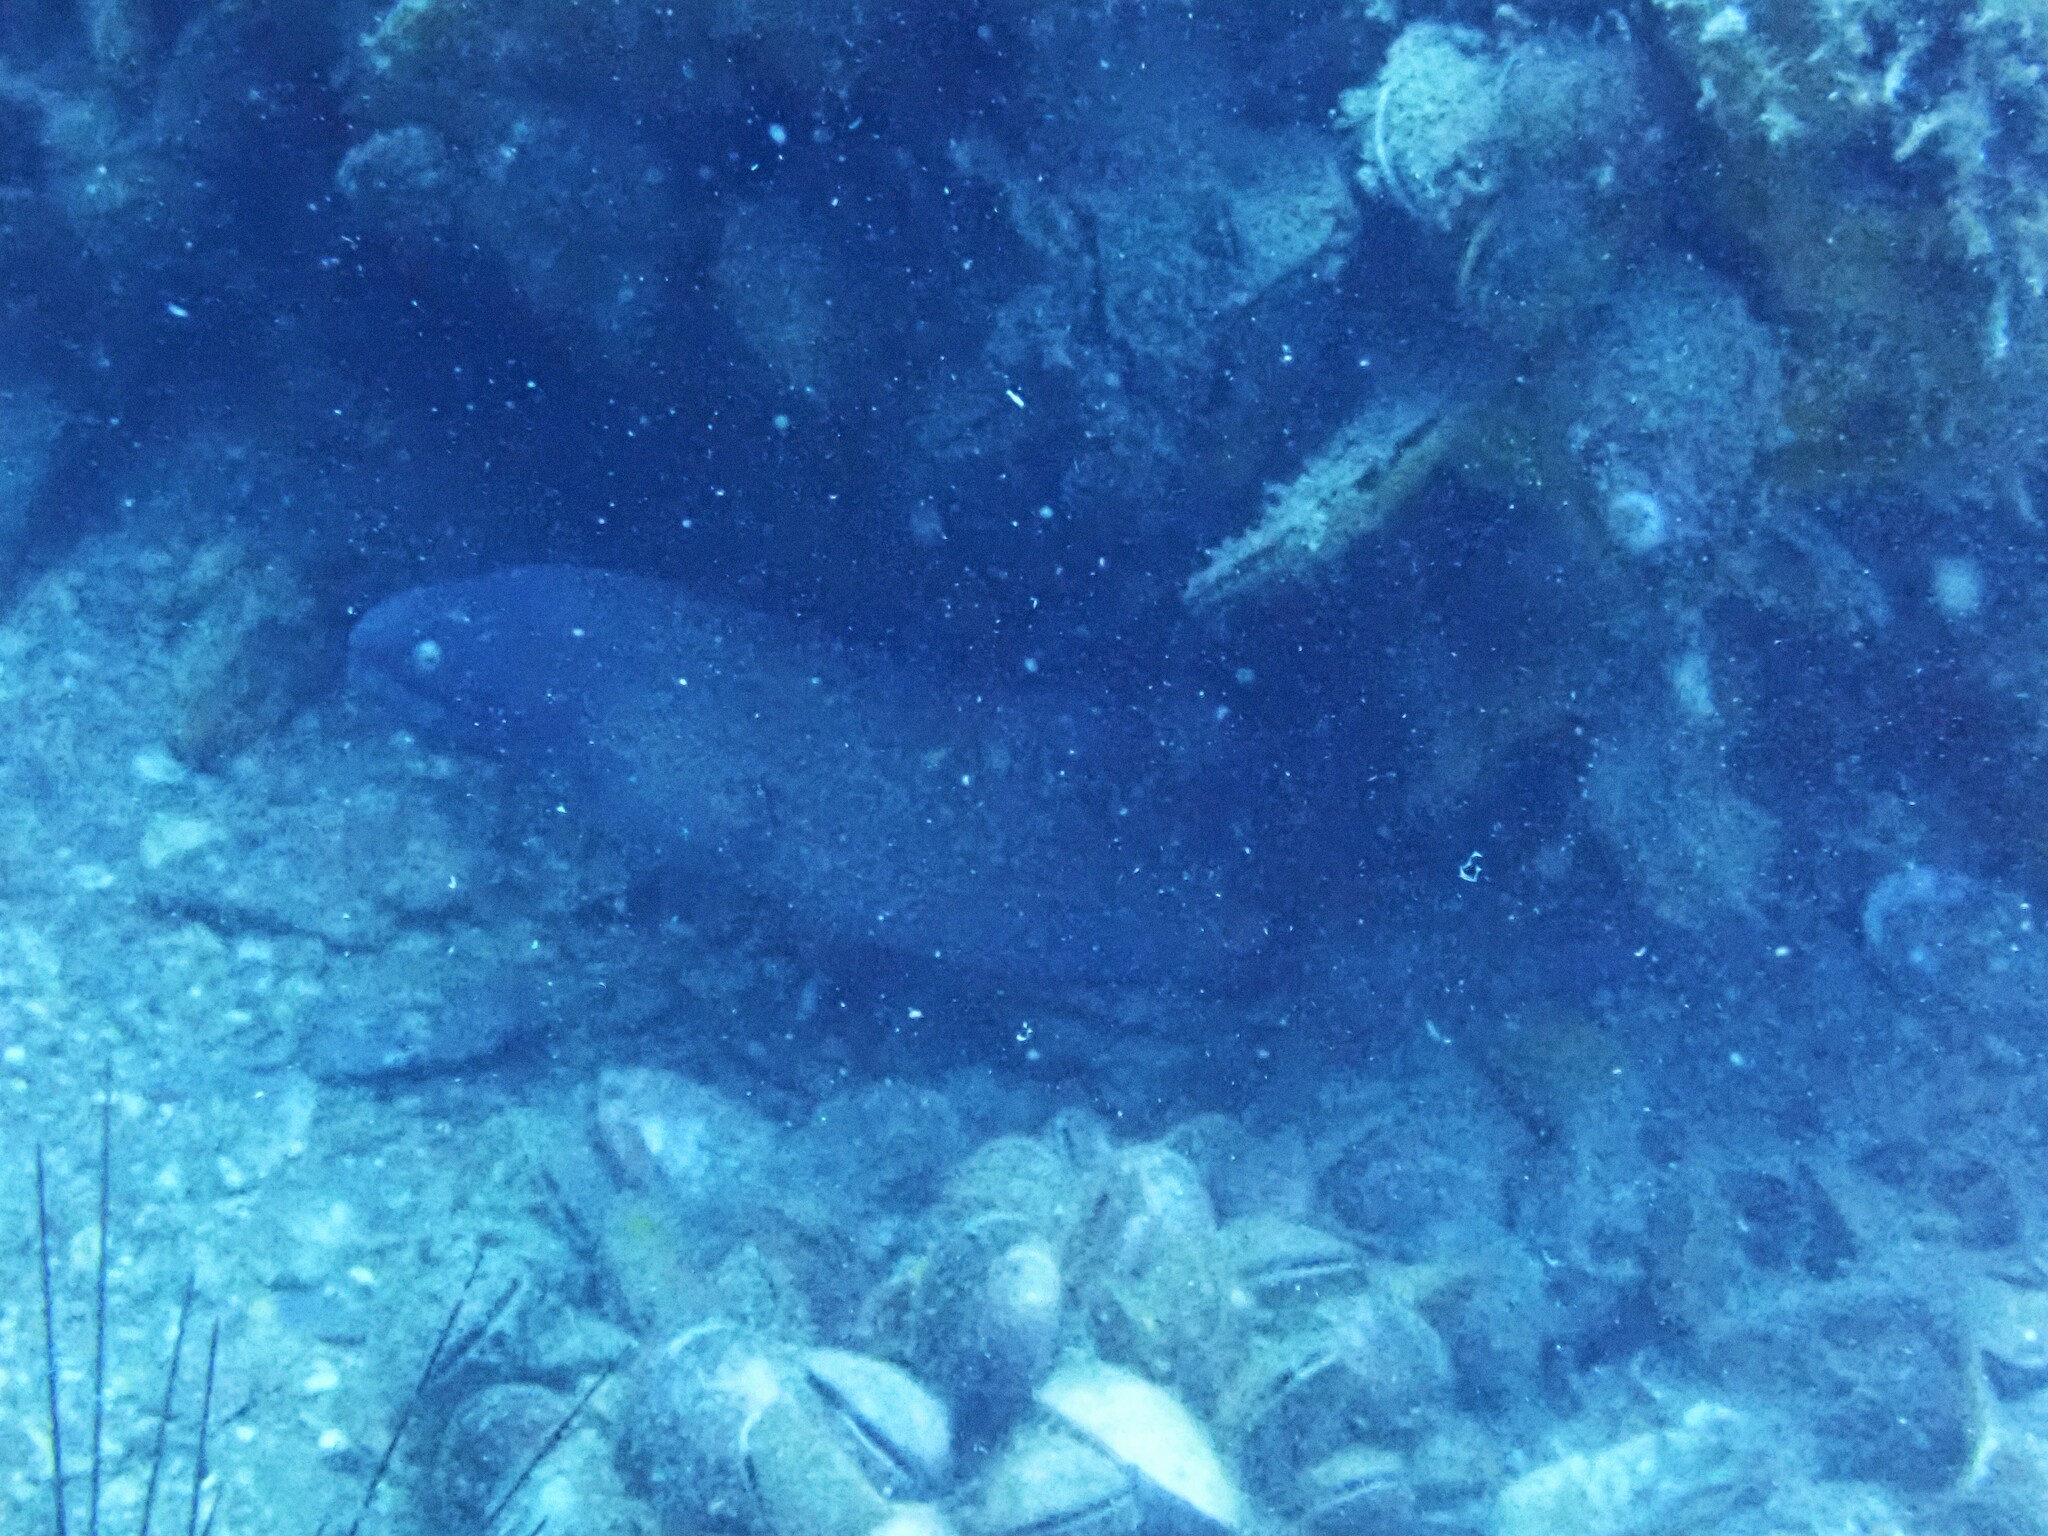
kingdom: Animalia
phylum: Chordata
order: Anguilliformes
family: Muraenidae
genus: Gymnothorax
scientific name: Gymnothorax thyrsoideus
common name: Greyface moray
